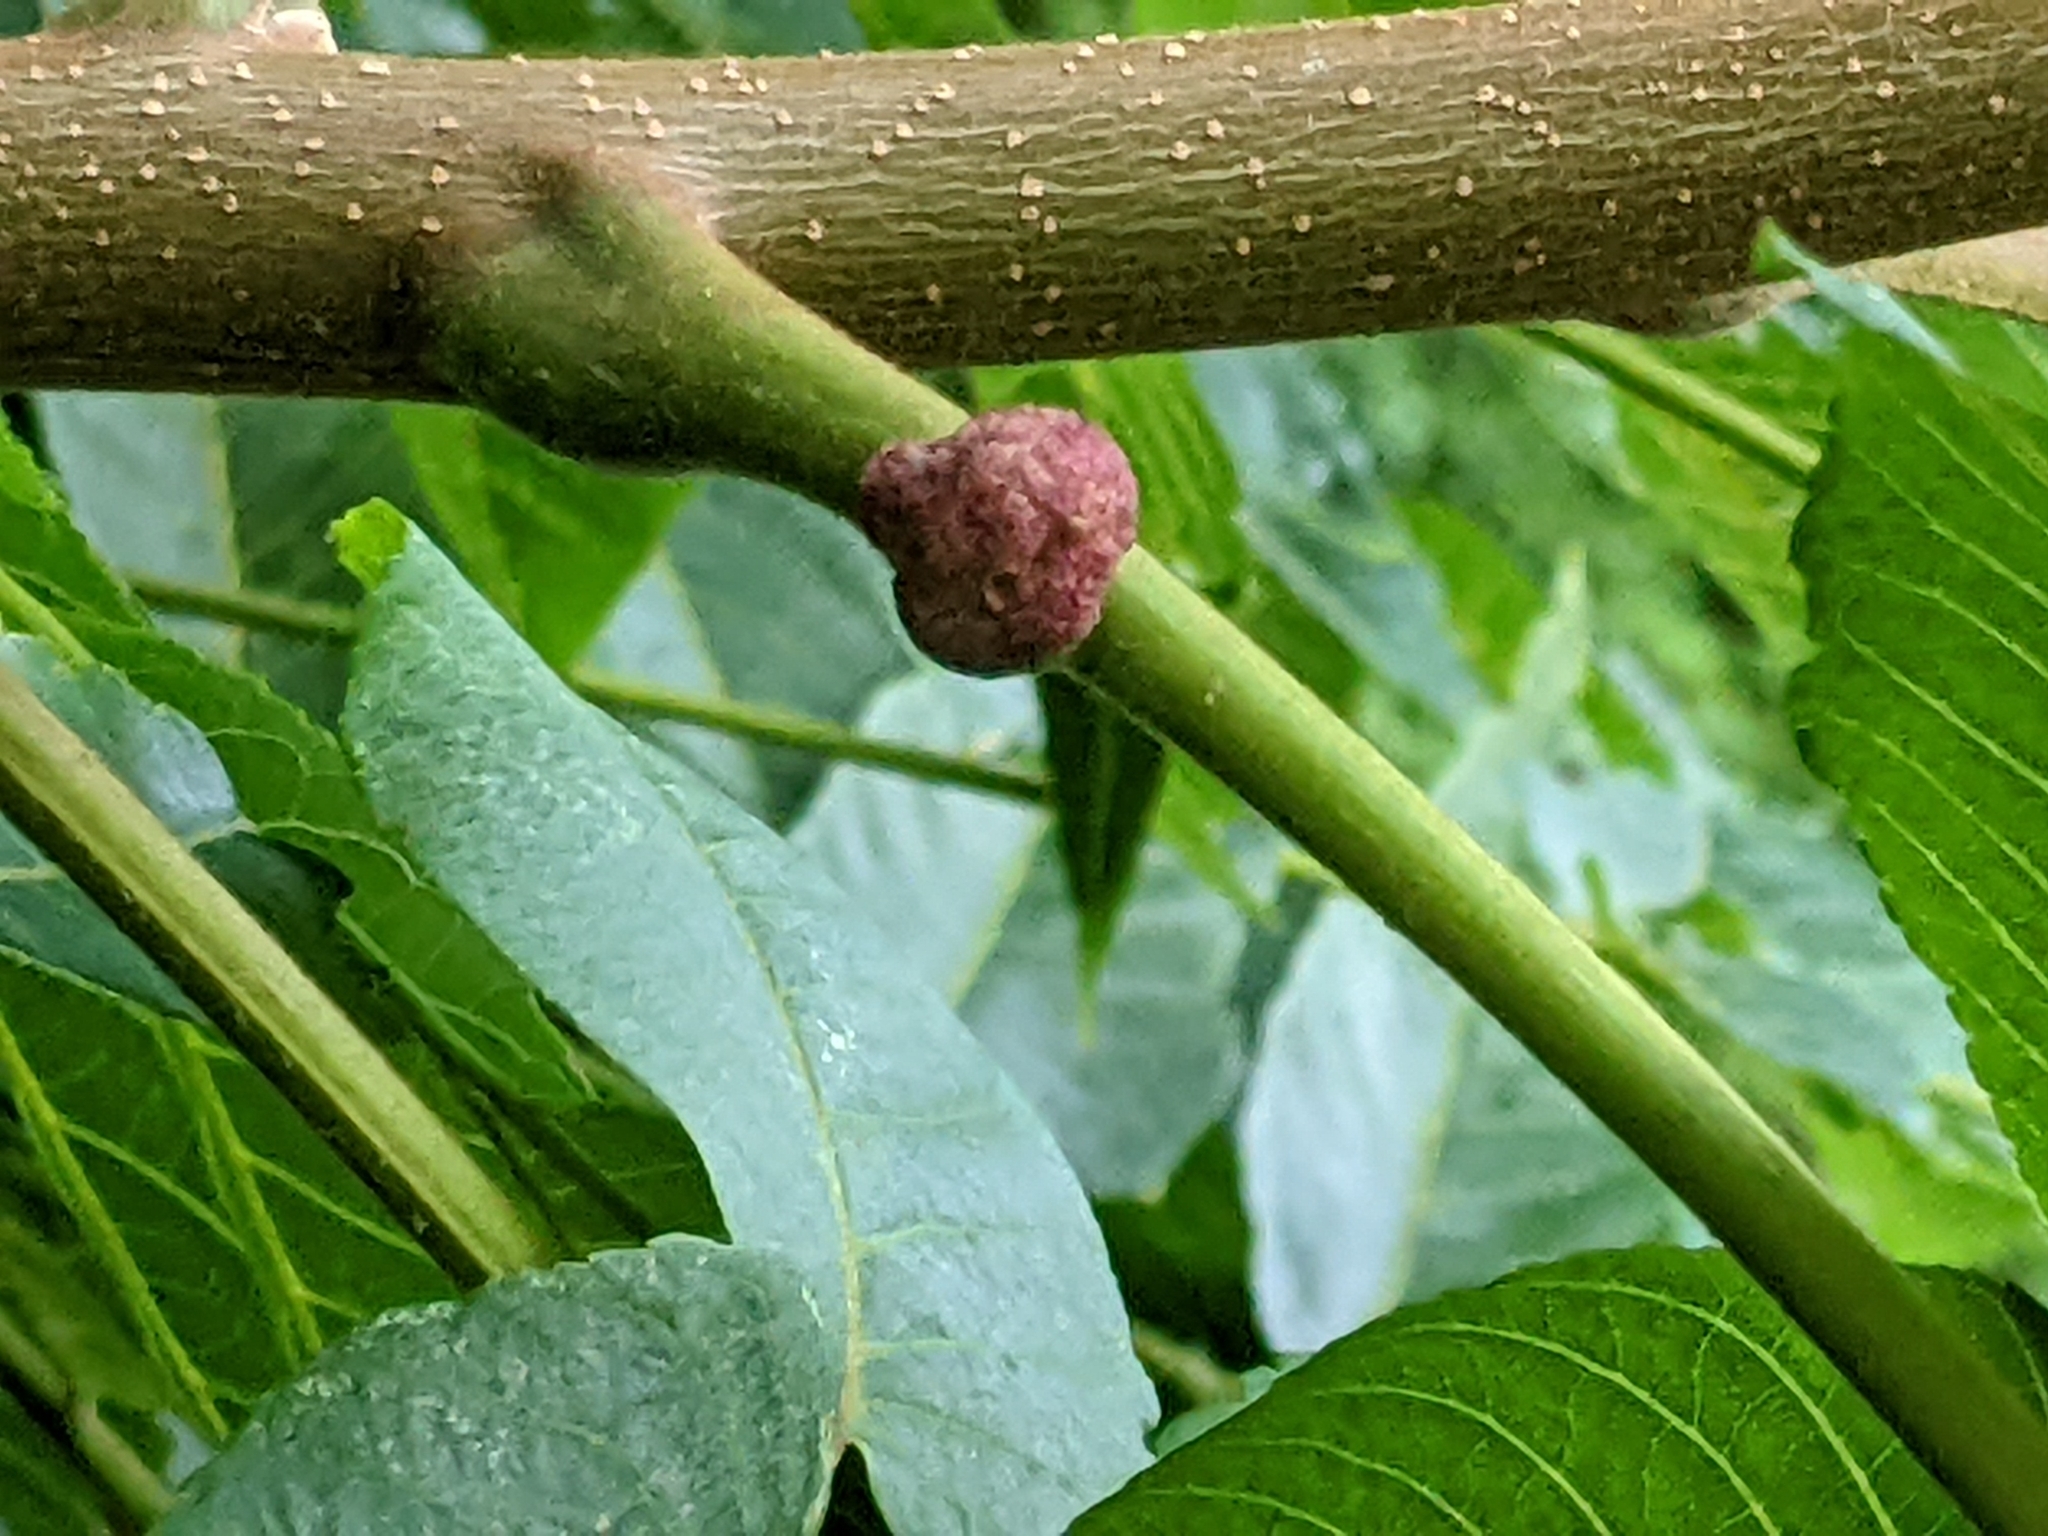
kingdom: Animalia
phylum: Arthropoda
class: Arachnida
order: Trombidiformes
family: Eriophyidae
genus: Aceria
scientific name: Aceria
